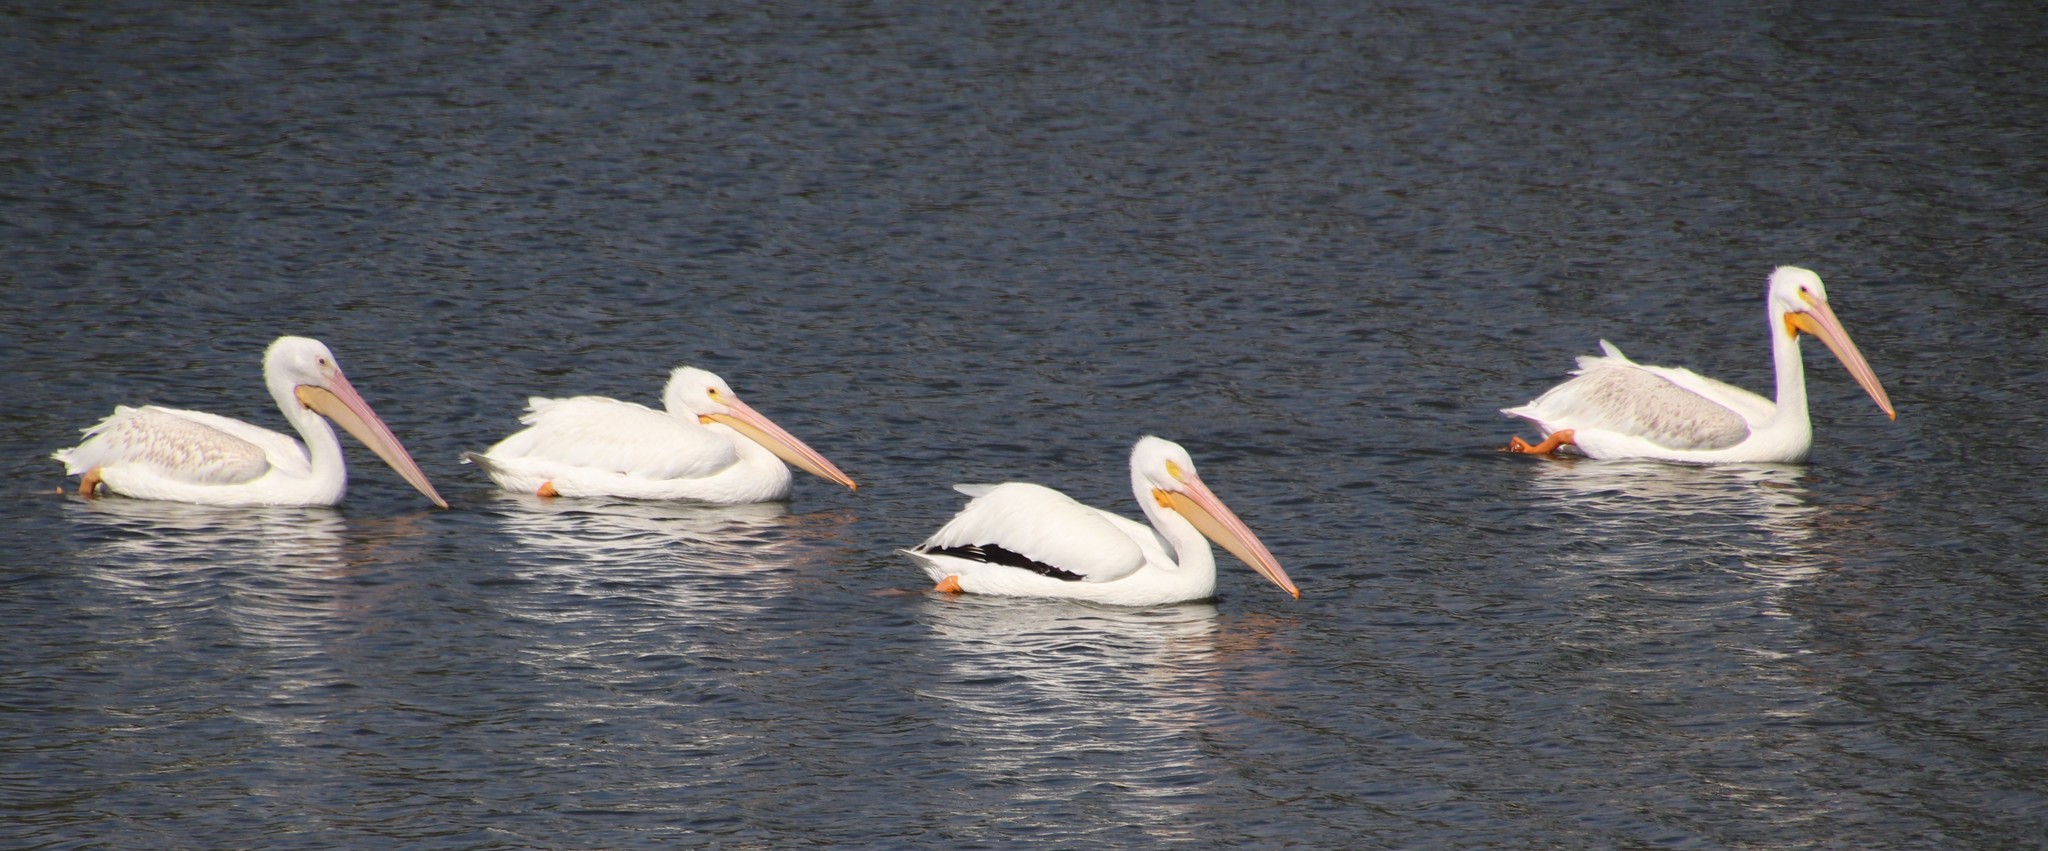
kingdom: Animalia
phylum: Chordata
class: Aves
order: Pelecaniformes
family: Pelecanidae
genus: Pelecanus
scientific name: Pelecanus erythrorhynchos
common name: American white pelican
